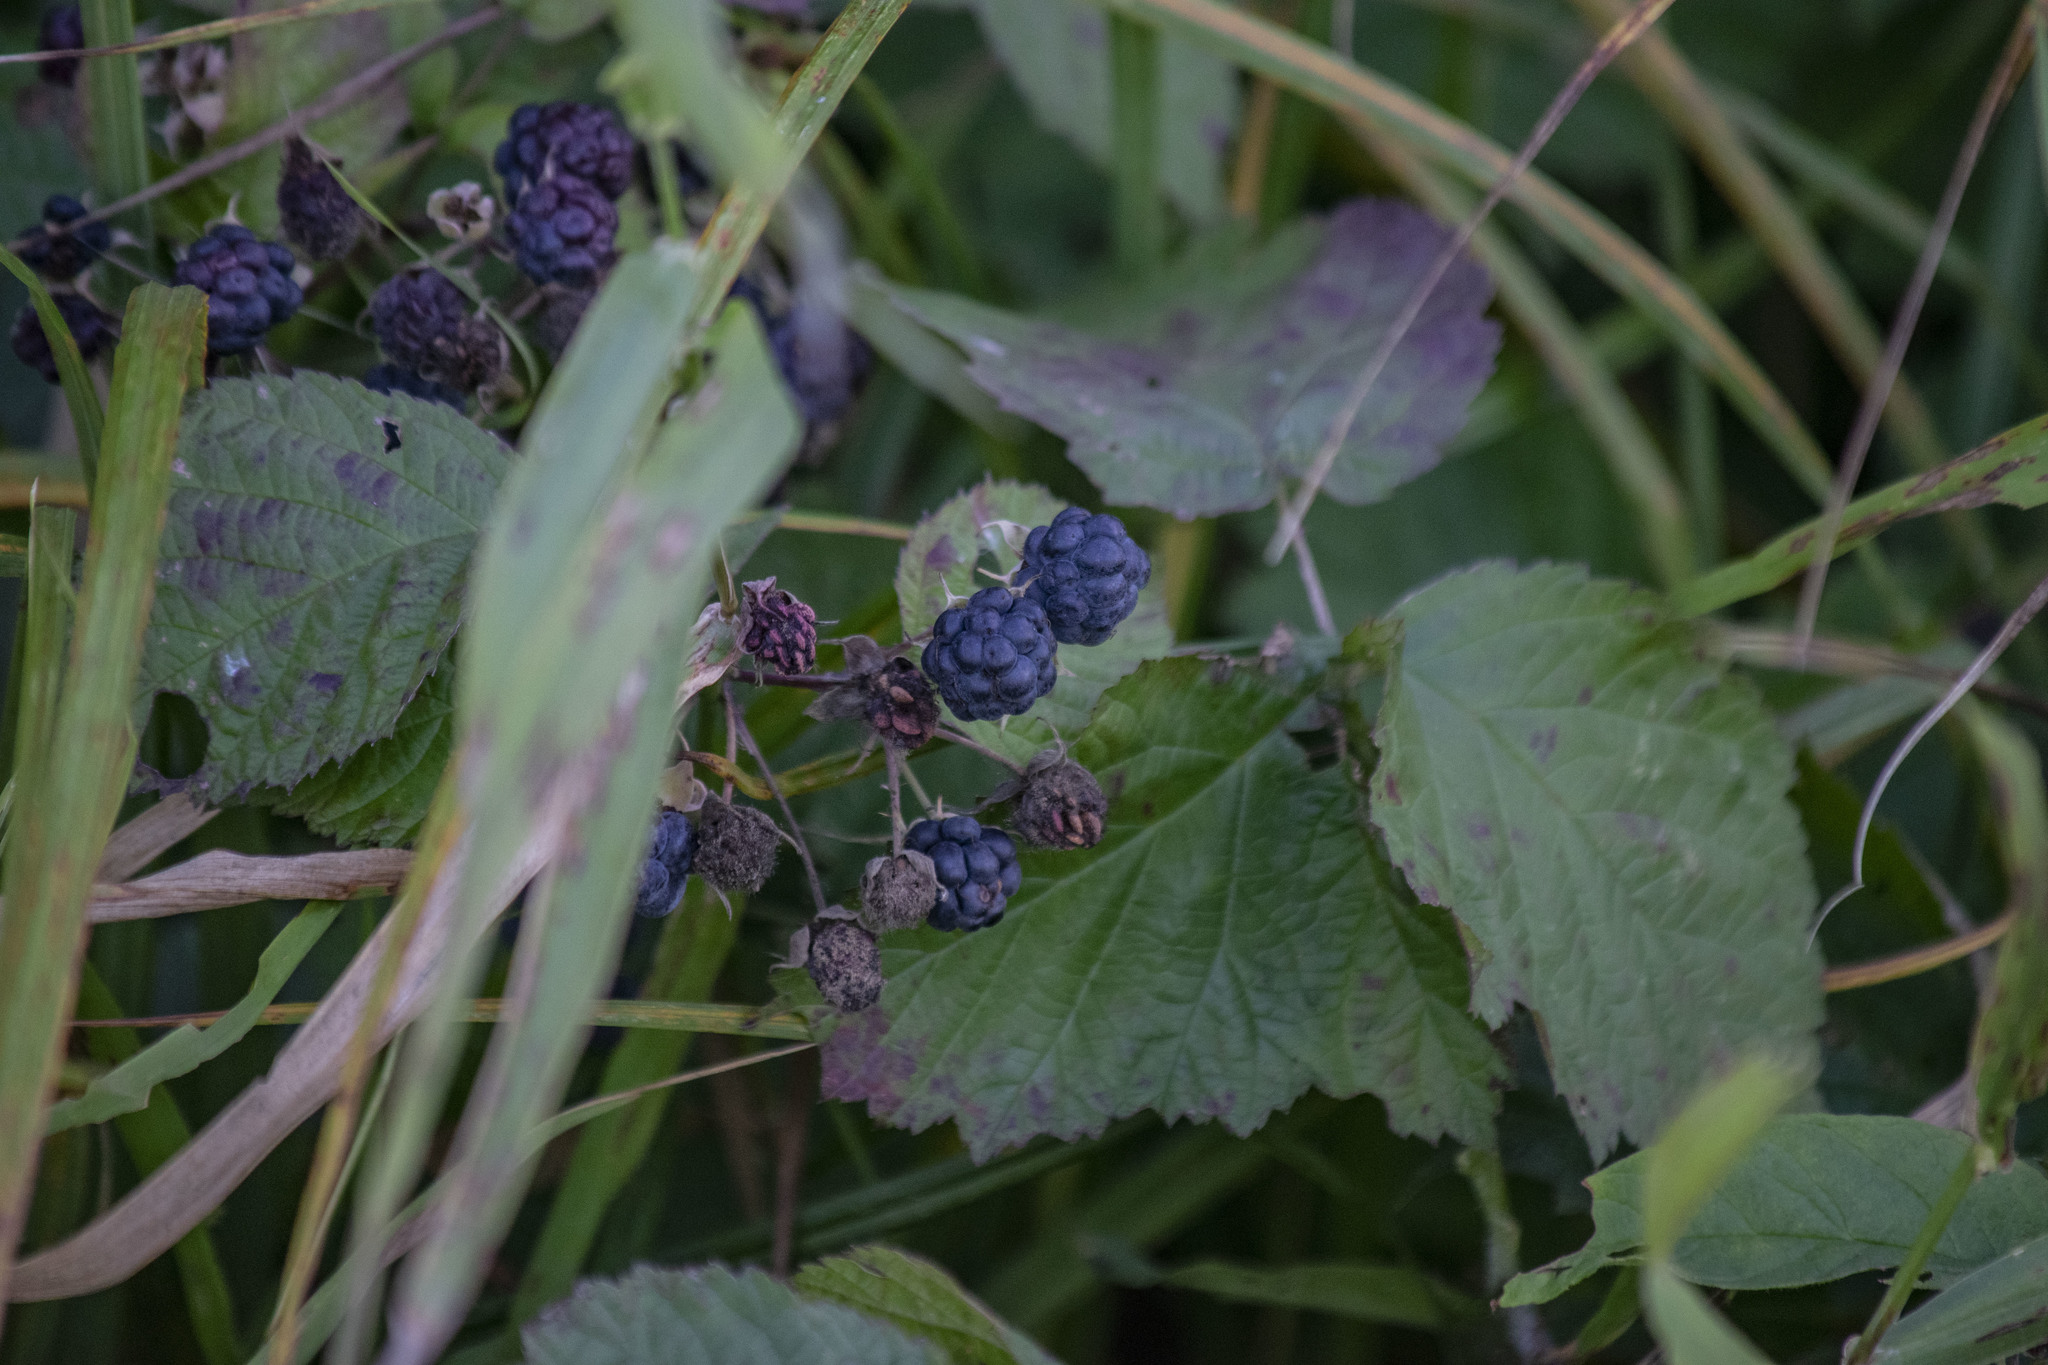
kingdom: Plantae
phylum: Tracheophyta
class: Magnoliopsida
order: Rosales
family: Rosaceae
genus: Rubus
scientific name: Rubus caesius
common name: Dewberry
